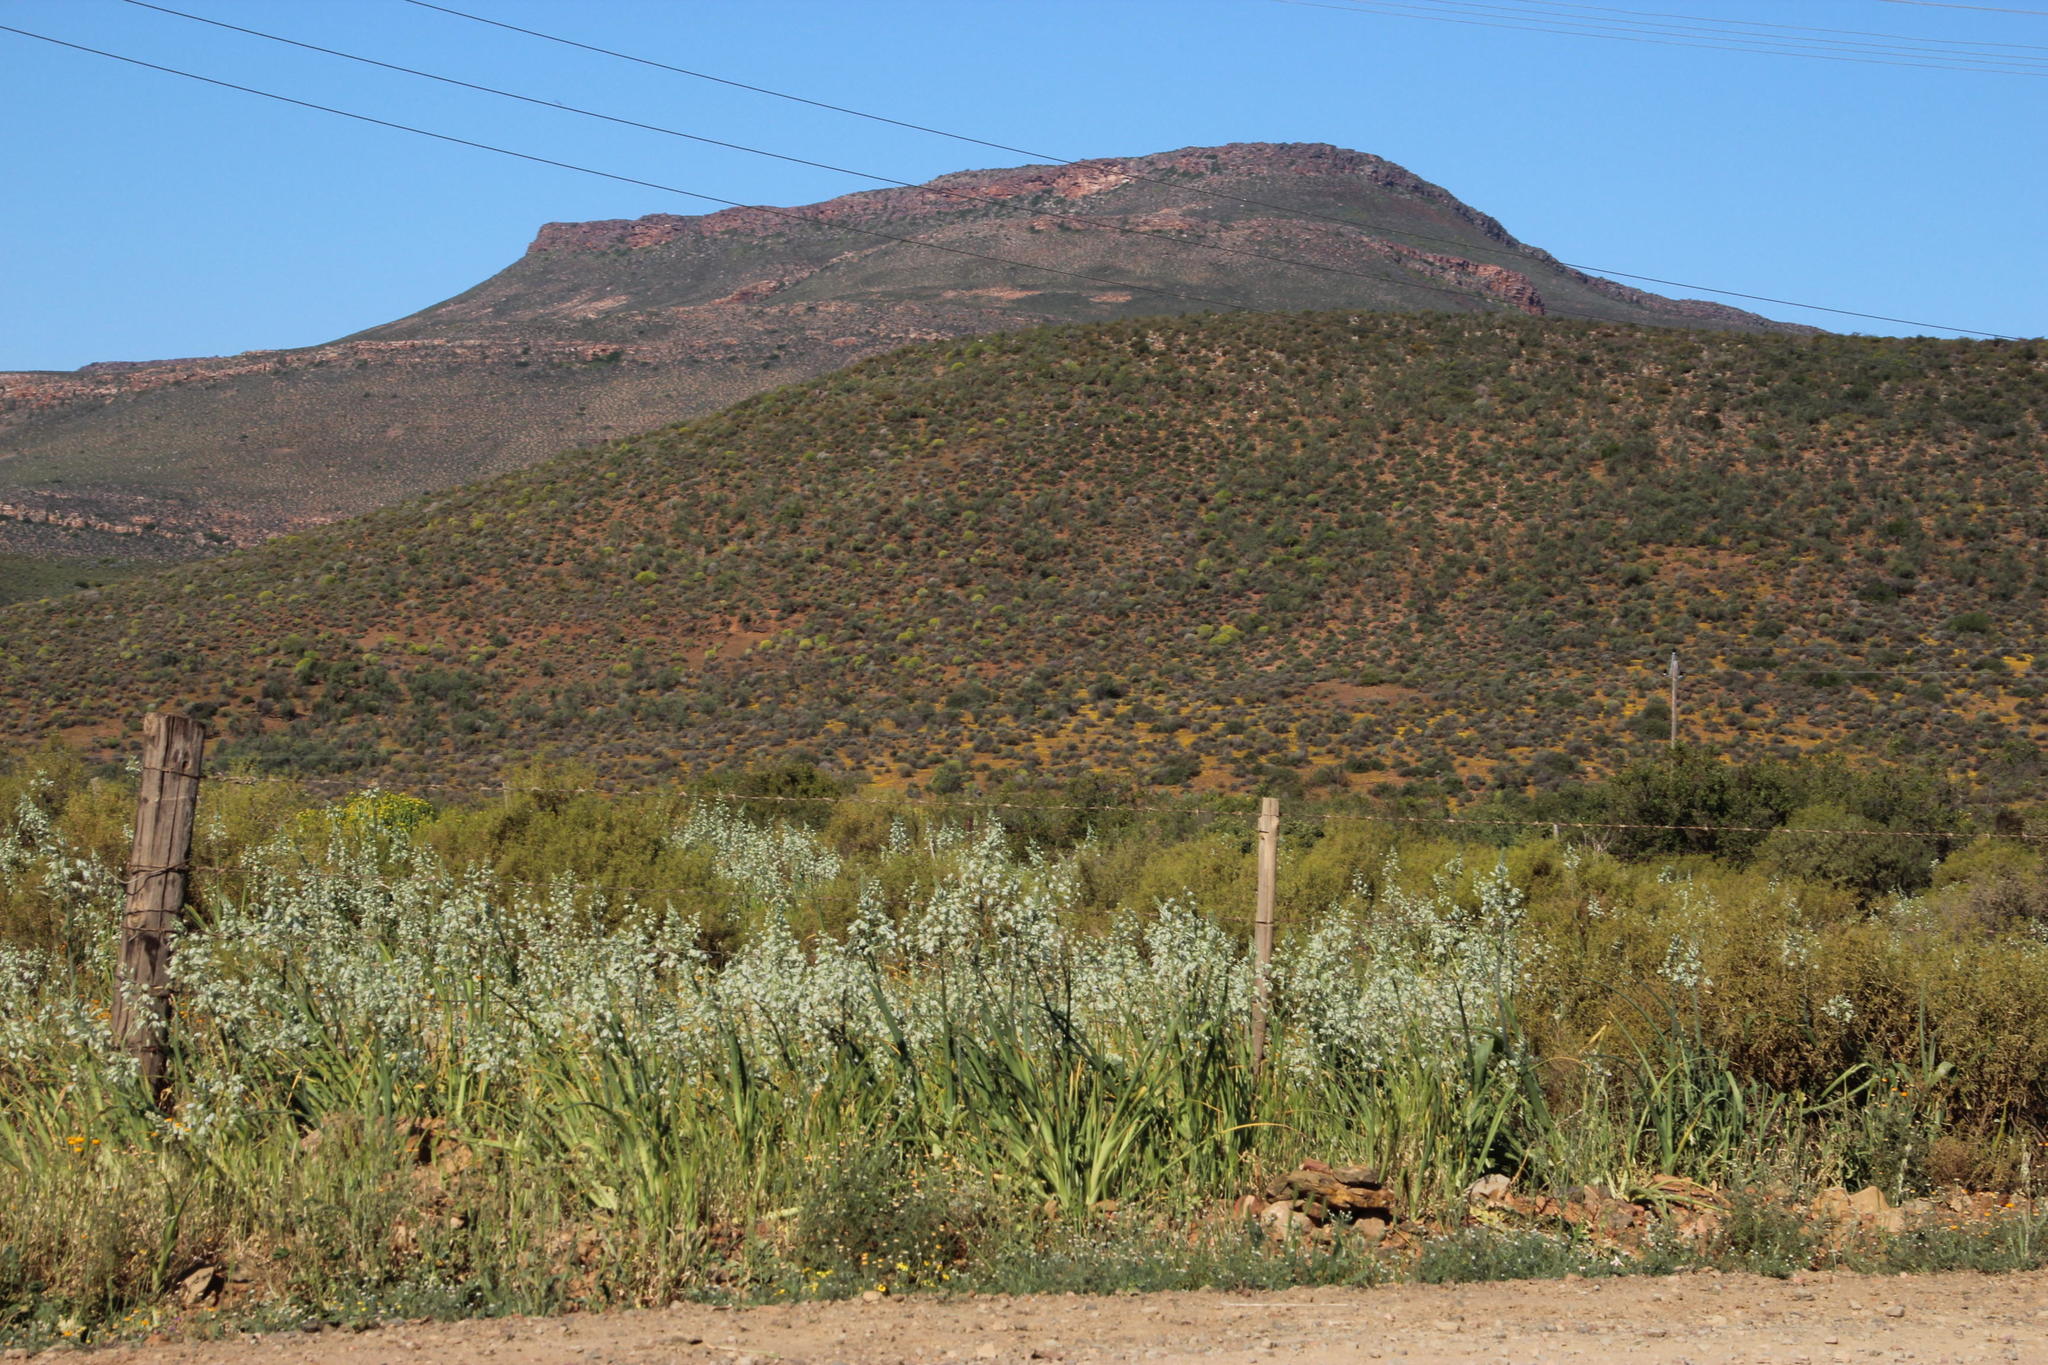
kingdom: Plantae
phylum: Tracheophyta
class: Liliopsida
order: Asparagales
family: Asparagaceae
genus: Albuca
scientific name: Albuca canadensis
